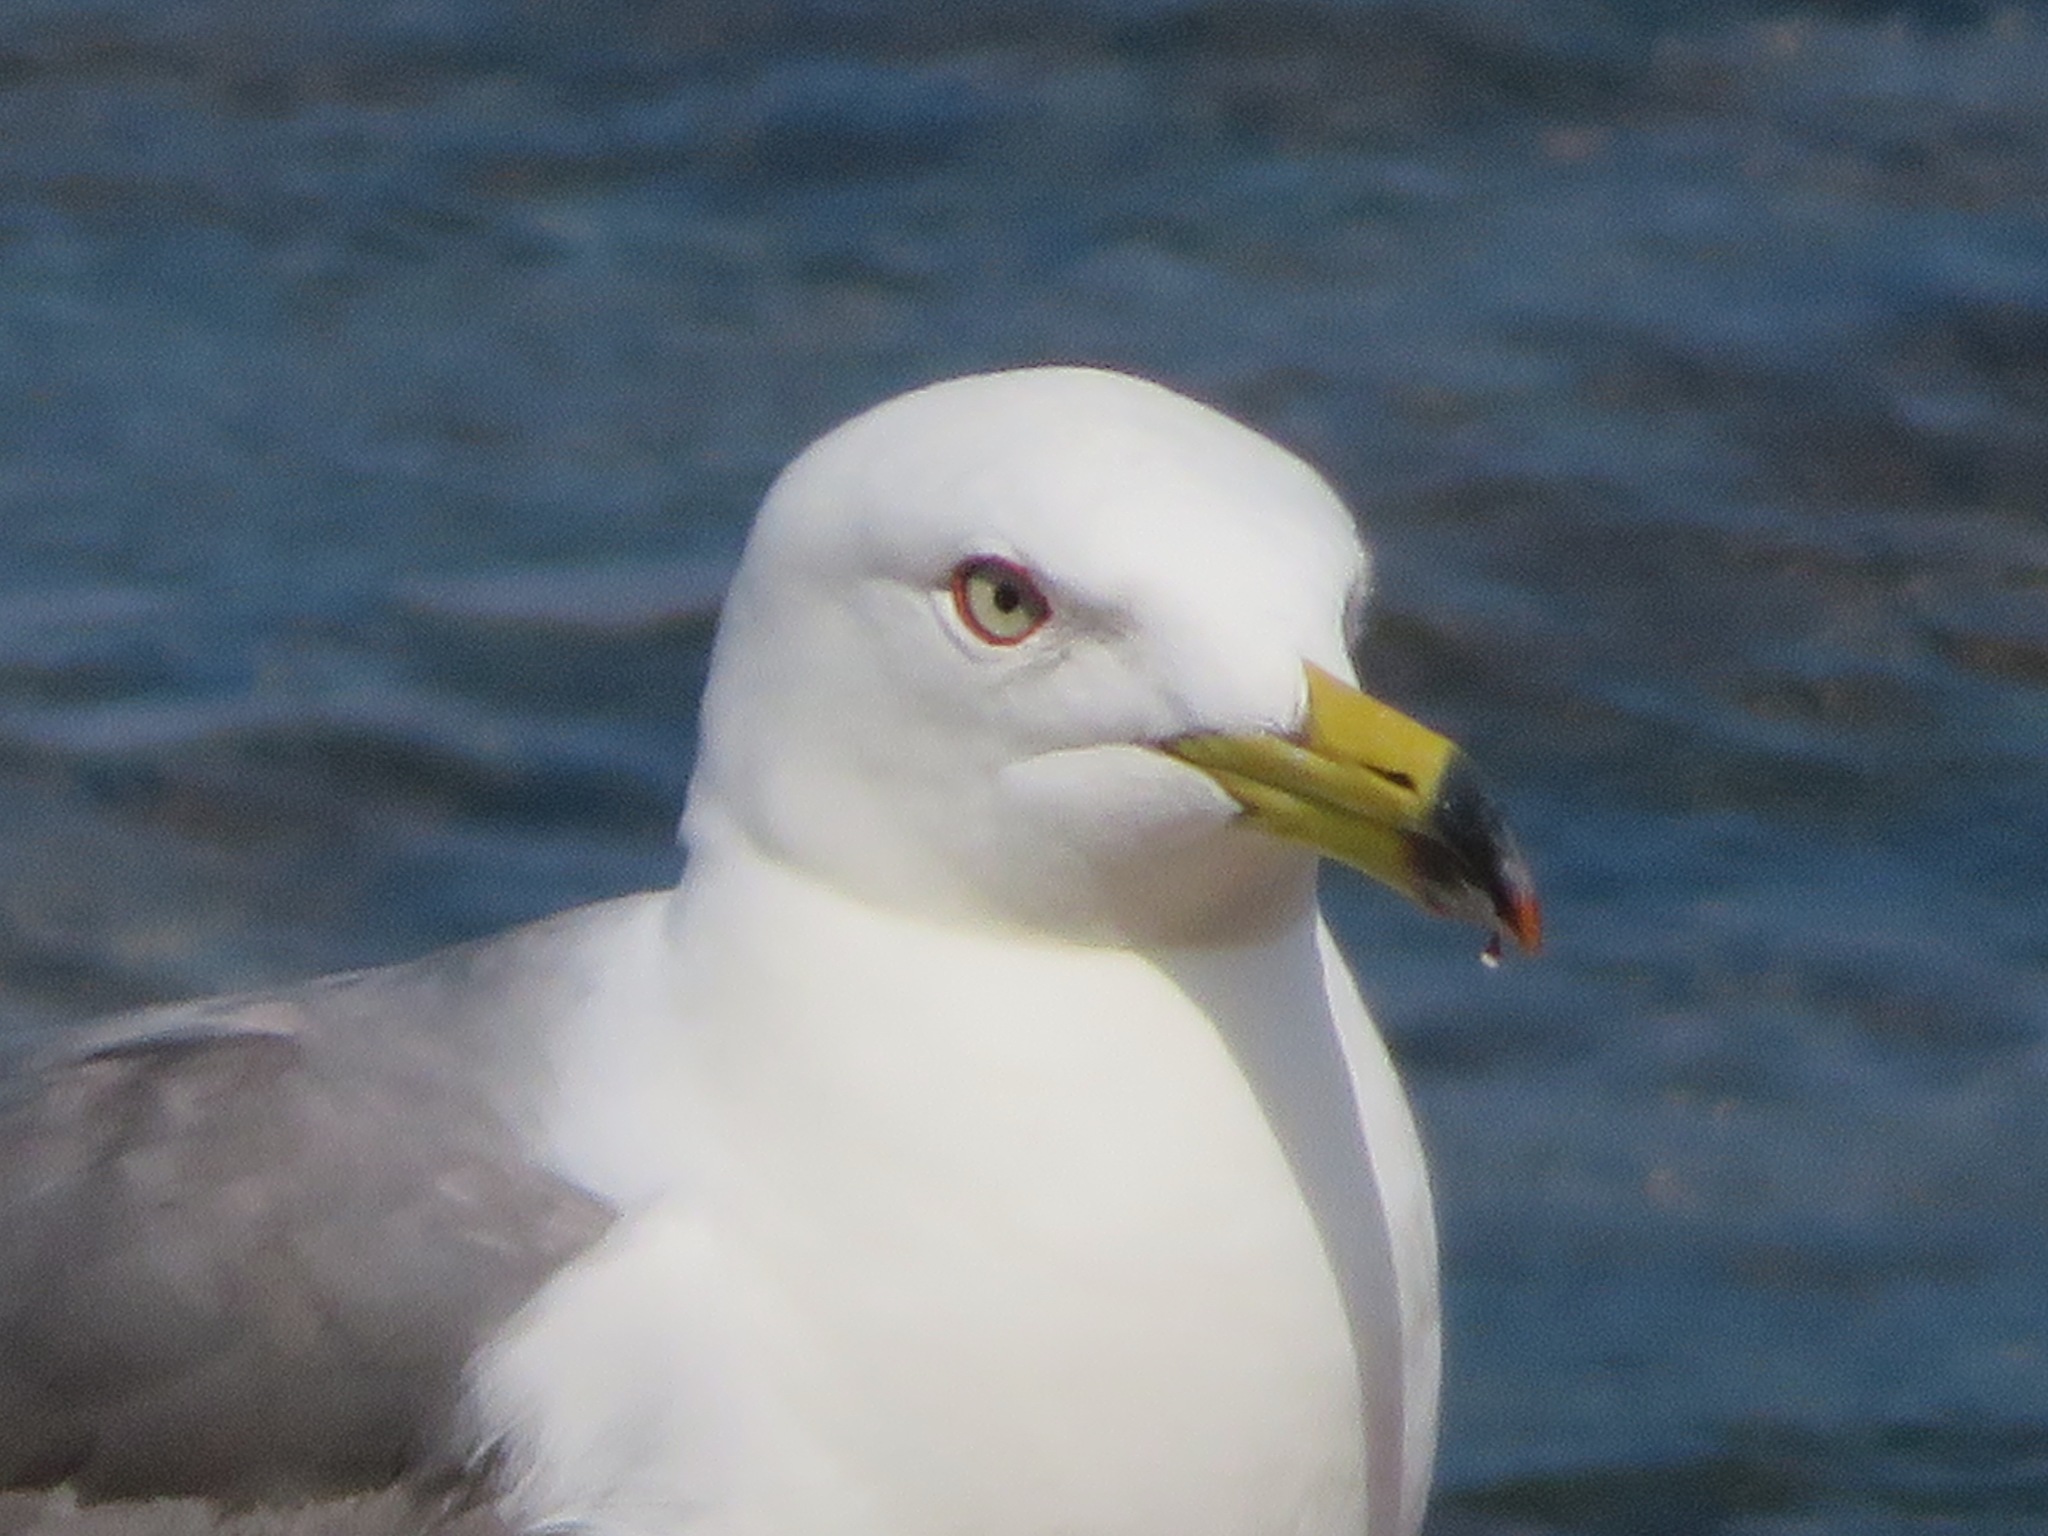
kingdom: Animalia
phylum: Chordata
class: Aves
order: Charadriiformes
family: Laridae
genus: Larus
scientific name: Larus crassirostris
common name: Black-tailed gull
